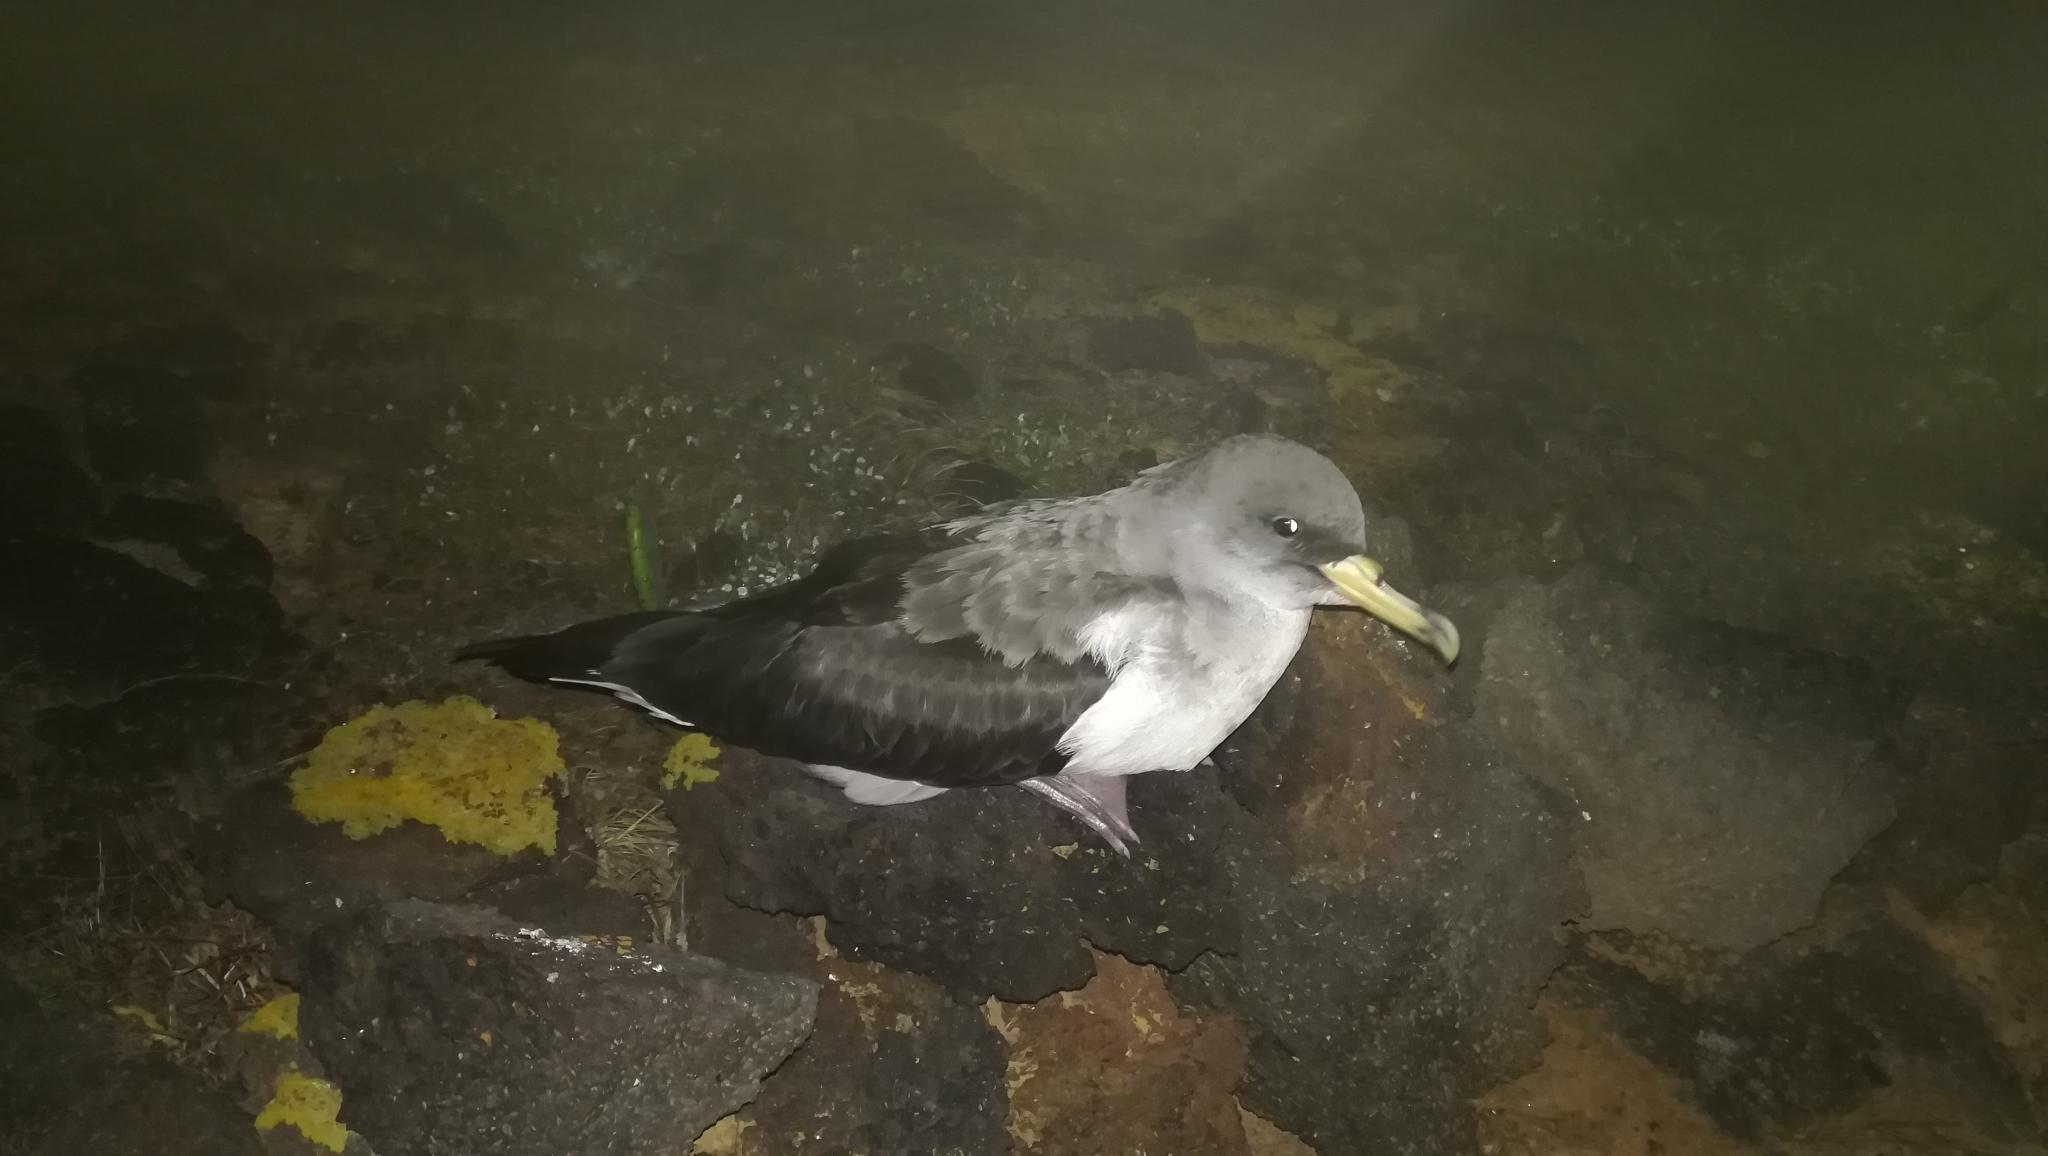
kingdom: Animalia
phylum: Chordata
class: Aves
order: Procellariiformes
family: Procellariidae
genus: Calonectris
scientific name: Calonectris diomedea
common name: Cory's shearwater
